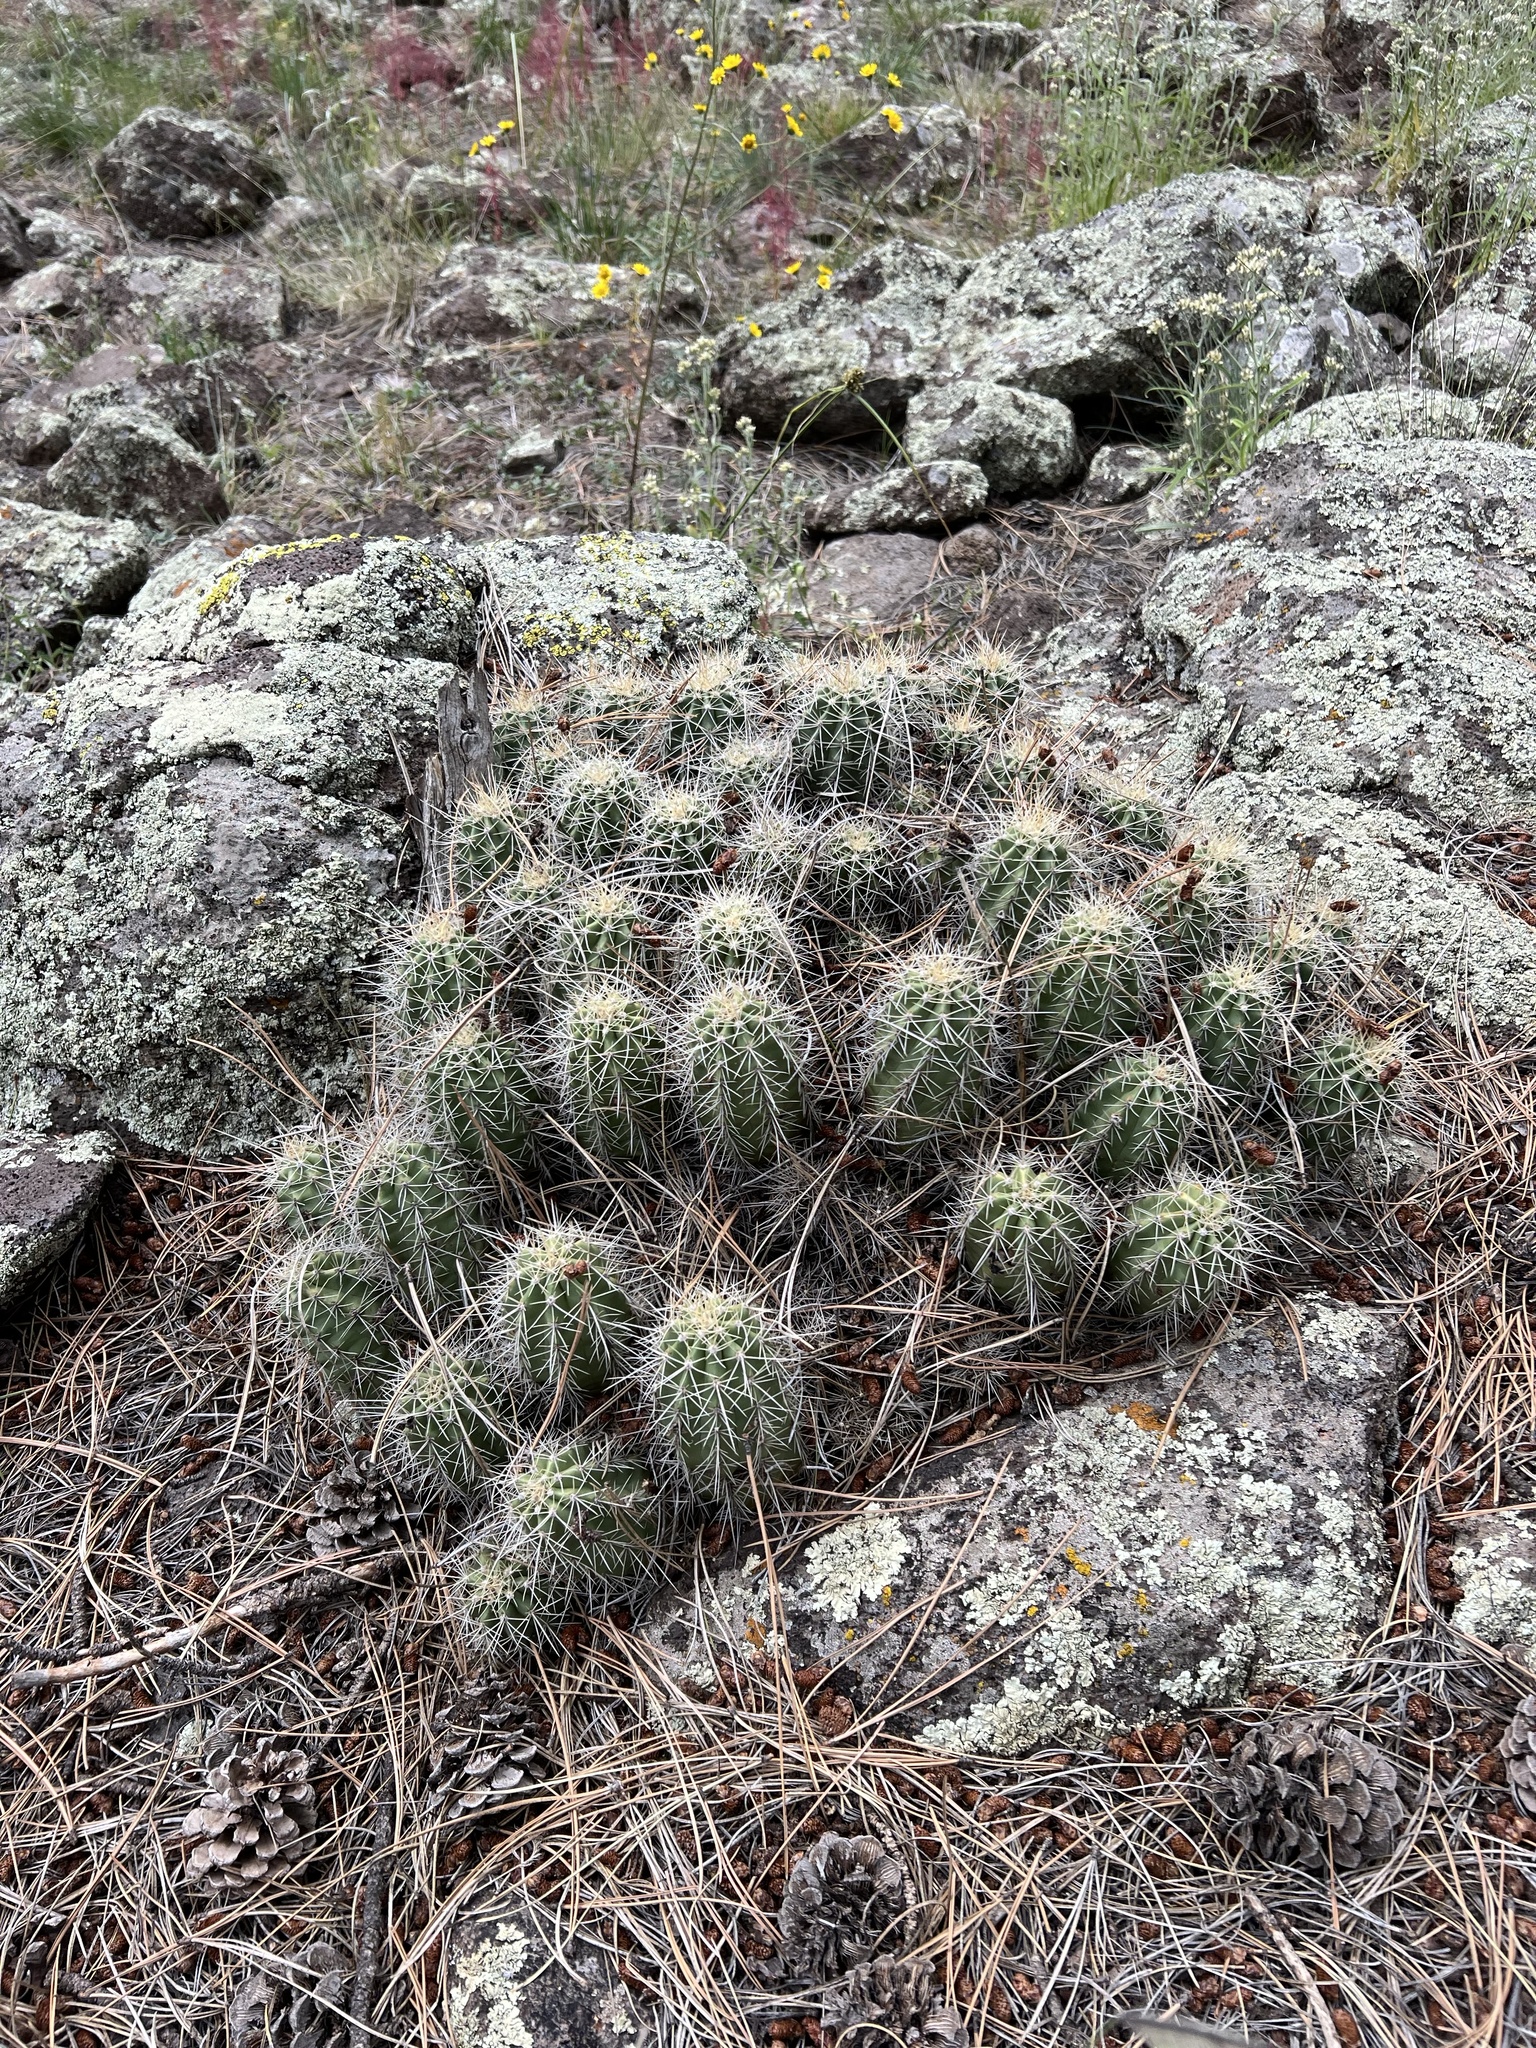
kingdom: Plantae
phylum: Tracheophyta
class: Magnoliopsida
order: Caryophyllales
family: Cactaceae
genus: Echinocereus
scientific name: Echinocereus bakeri
